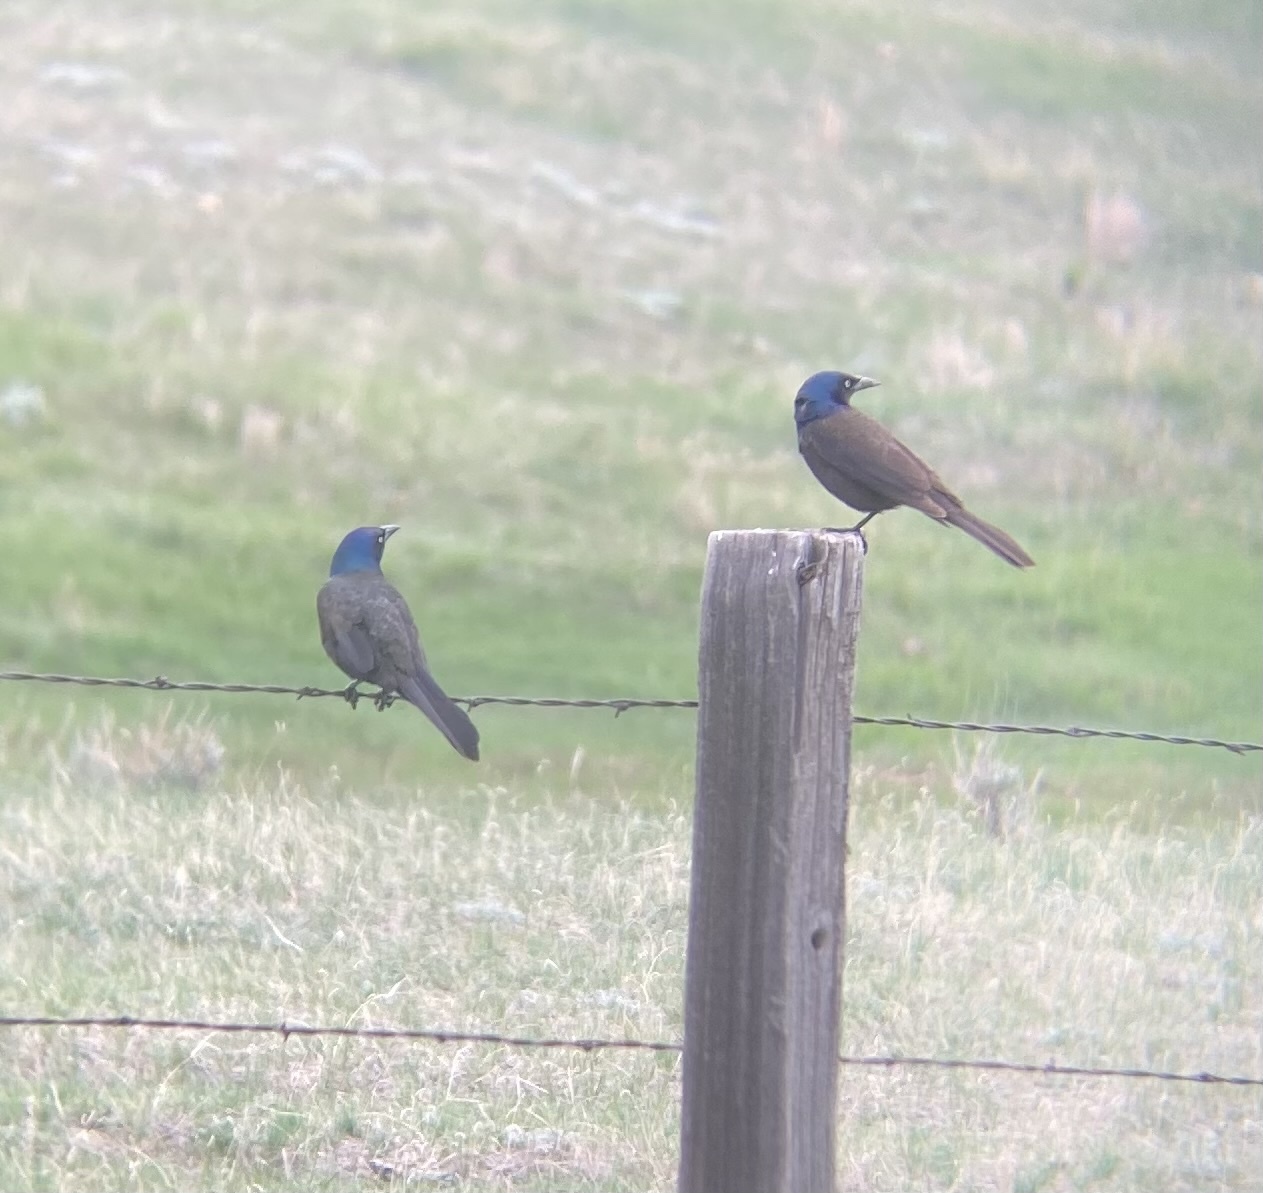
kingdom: Animalia
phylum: Chordata
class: Aves
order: Passeriformes
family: Icteridae
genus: Quiscalus
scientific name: Quiscalus quiscula
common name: Common grackle
